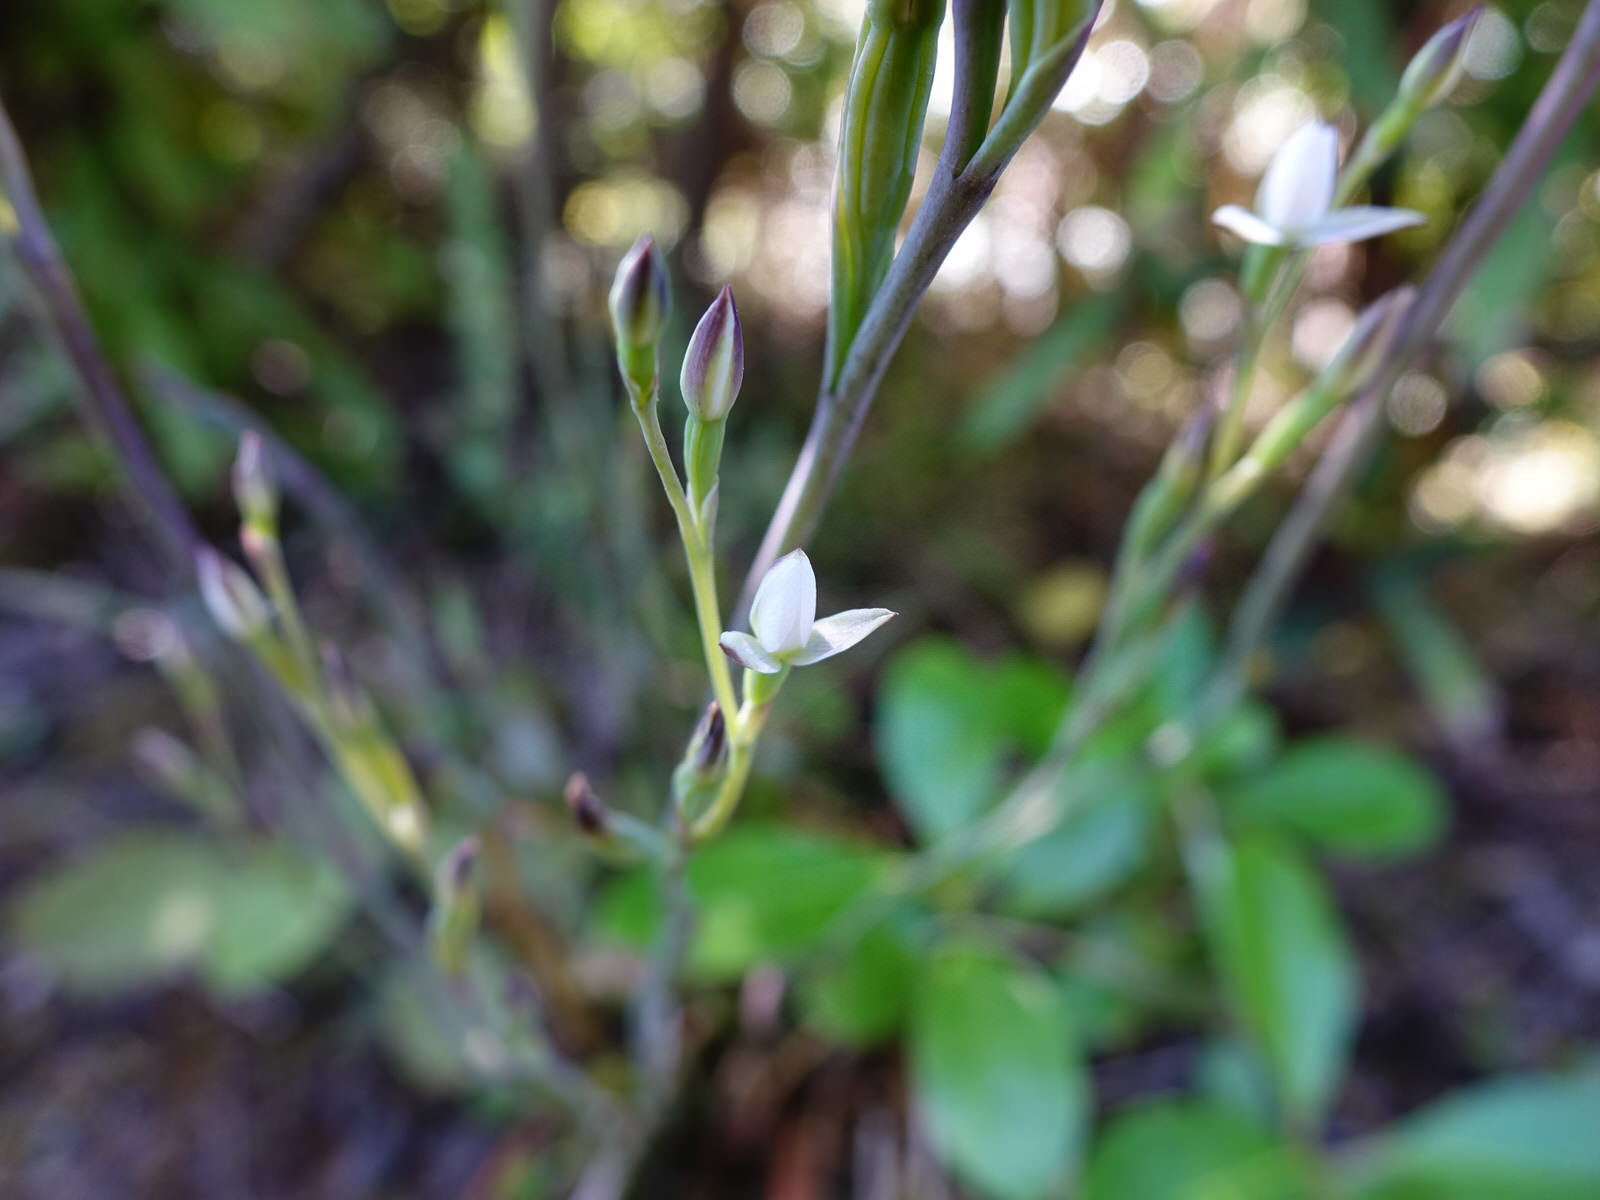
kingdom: Plantae
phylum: Tracheophyta
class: Liliopsida
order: Asparagales
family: Orchidaceae
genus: Thelymitra
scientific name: Thelymitra longifolia
